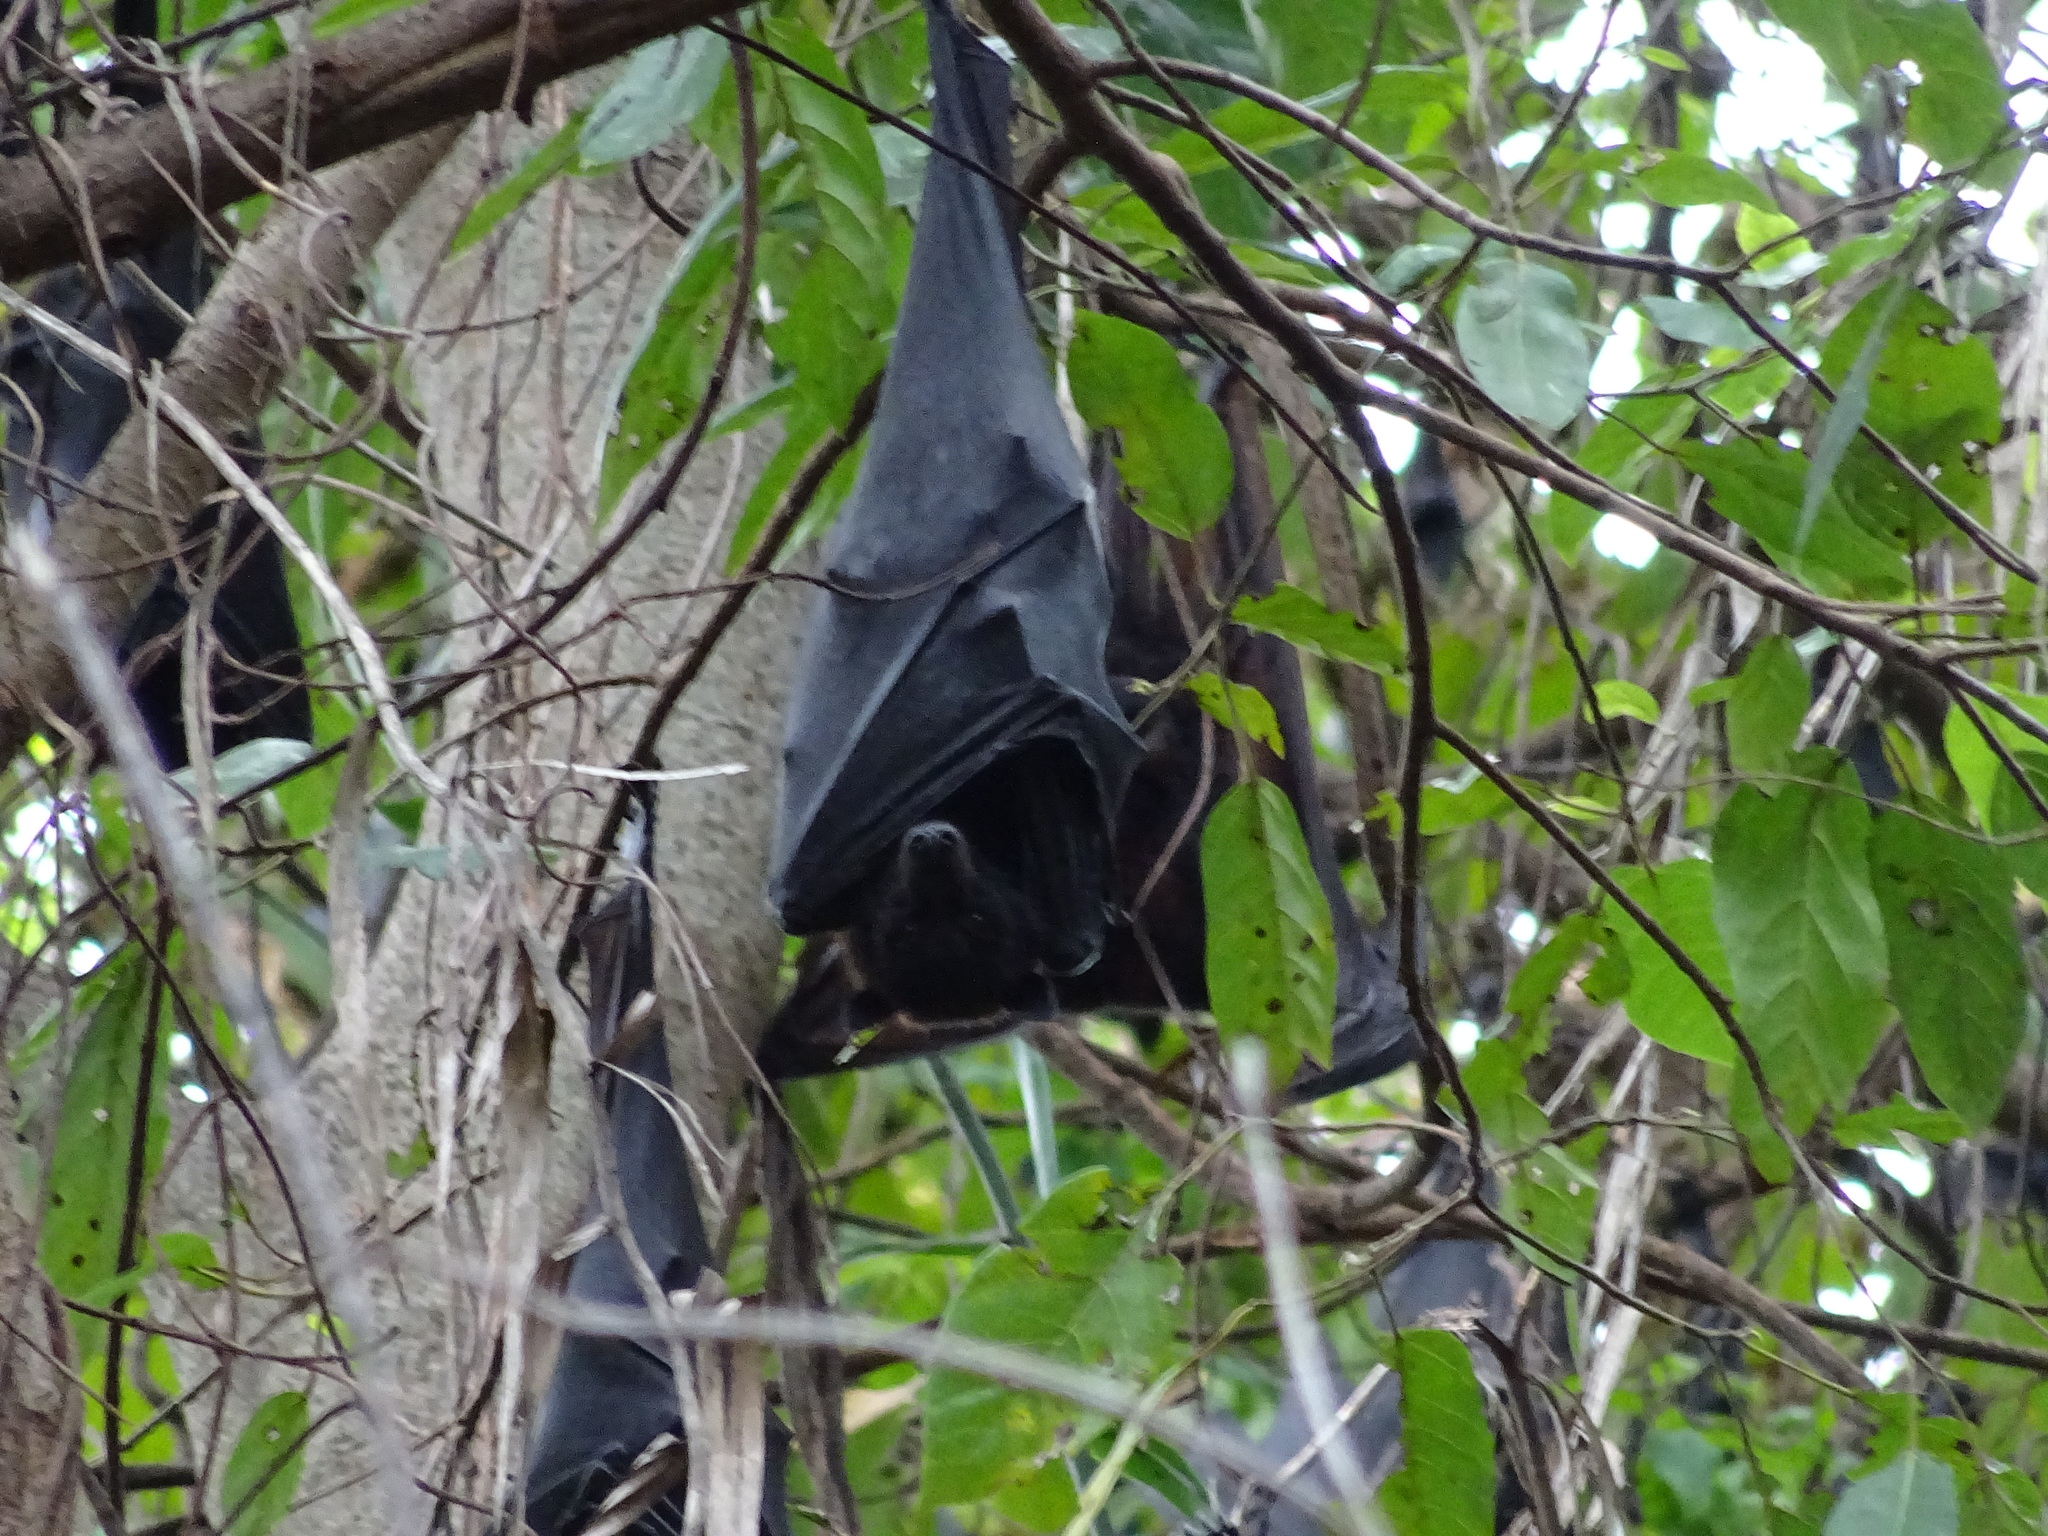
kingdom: Animalia
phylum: Chordata
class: Mammalia
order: Chiroptera
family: Pteropodidae
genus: Pteropus
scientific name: Pteropus alecto
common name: Black flying fox
